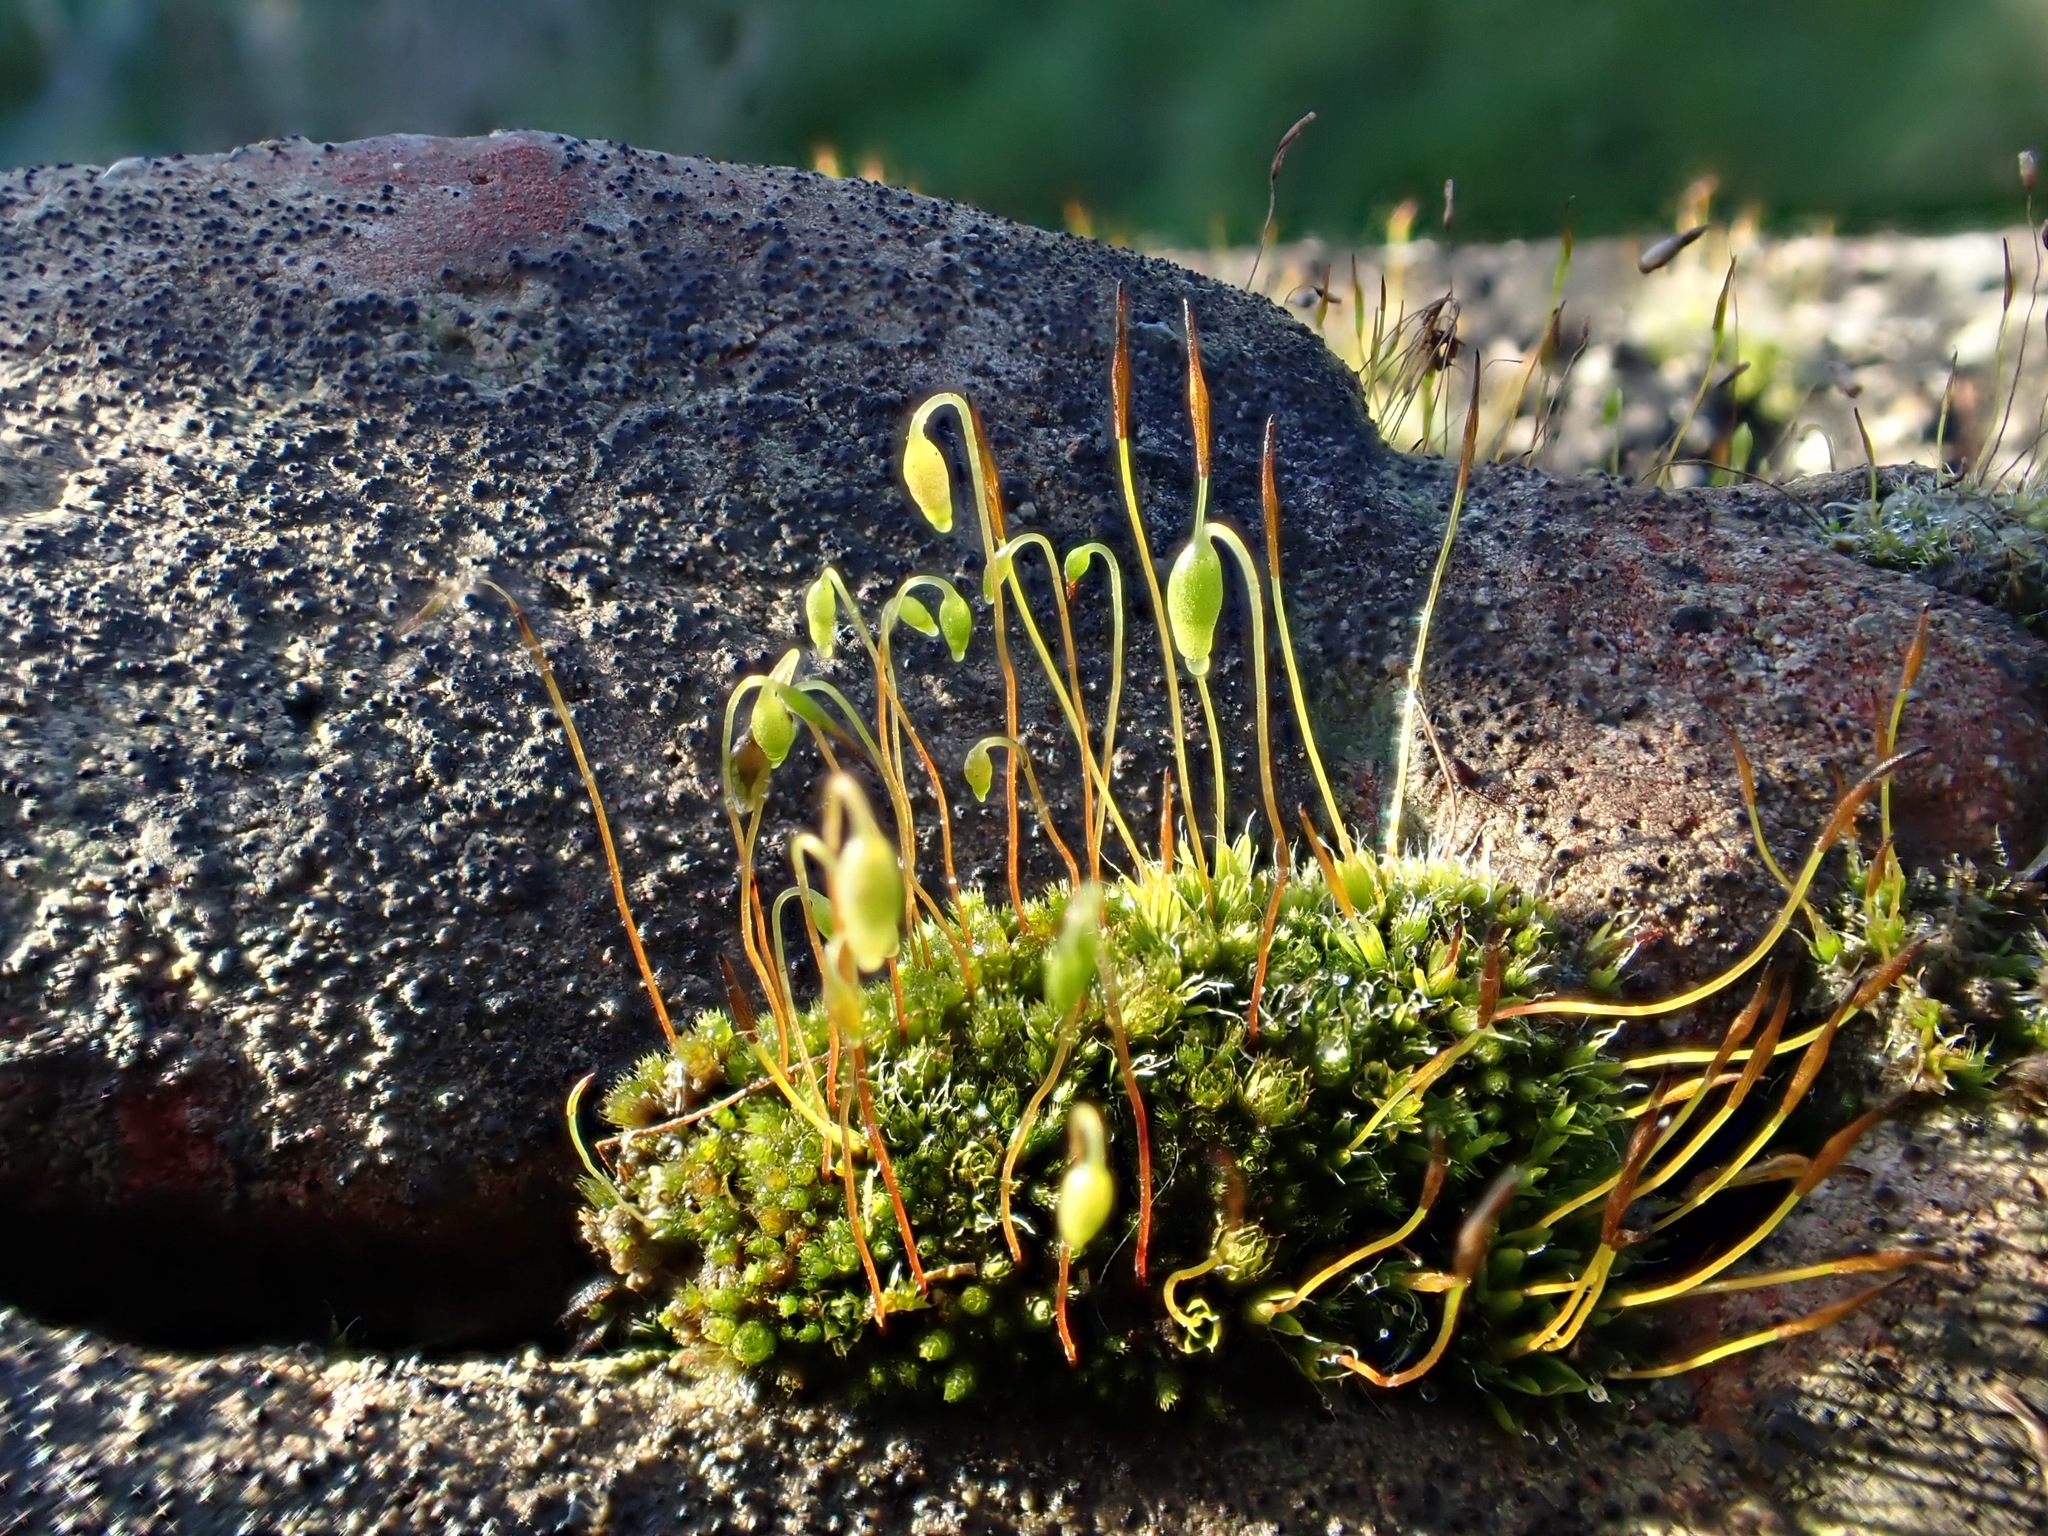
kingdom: Plantae
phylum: Bryophyta
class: Bryopsida
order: Bryales
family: Bryaceae
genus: Rosulabryum
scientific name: Rosulabryum capillare
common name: Capillary thread-moss
